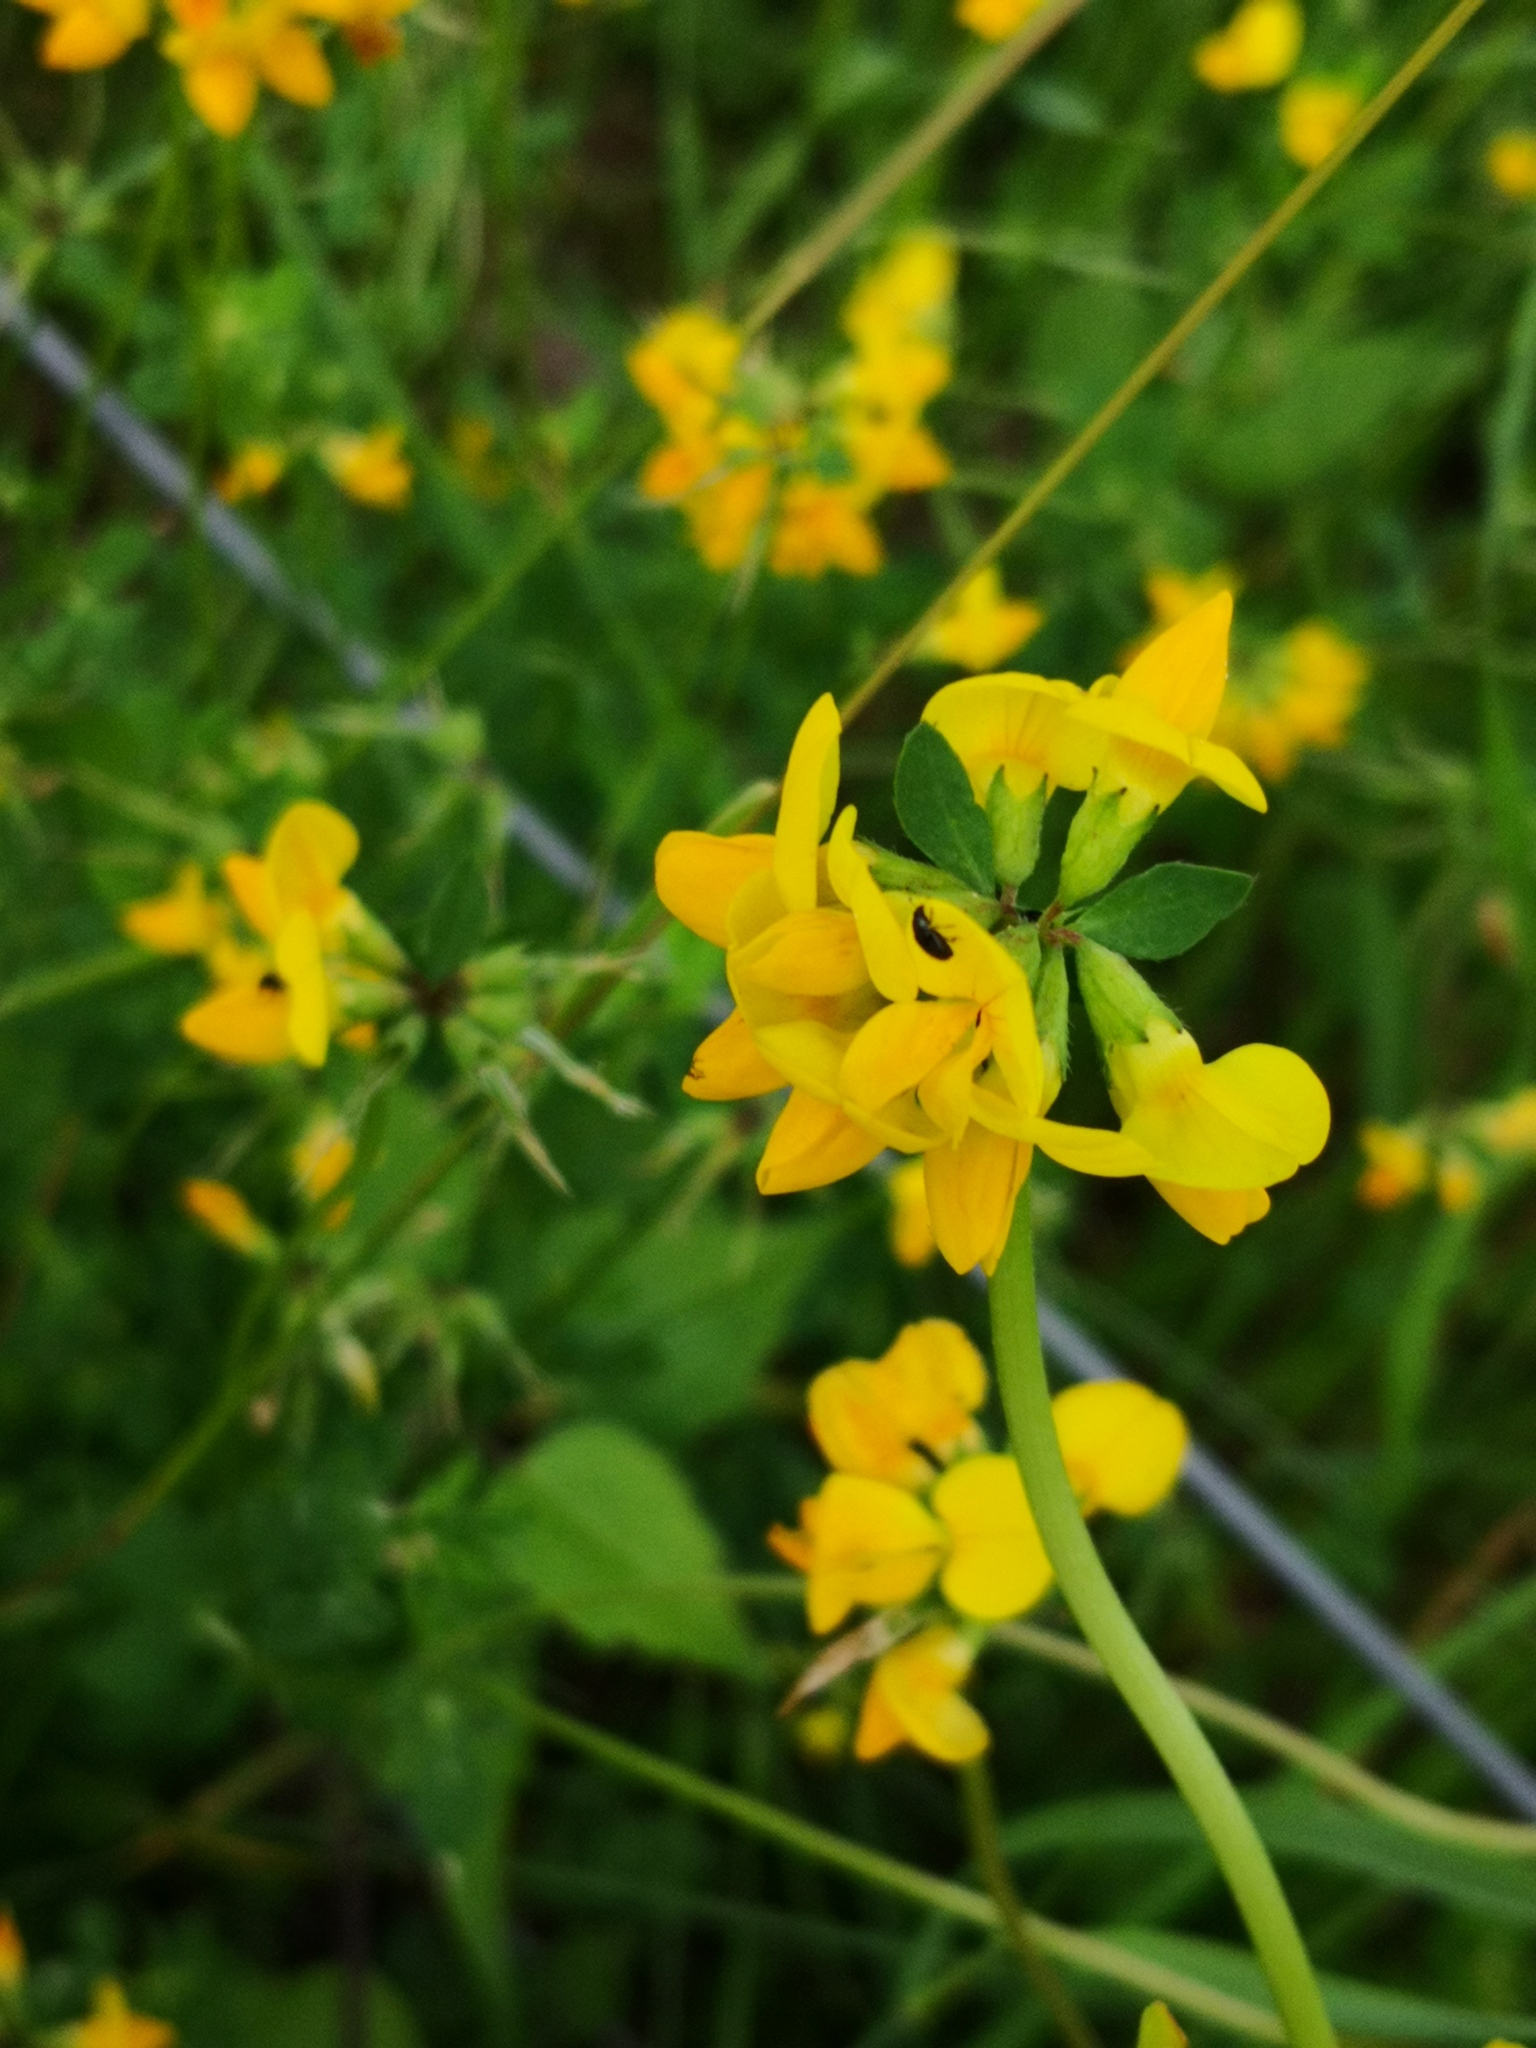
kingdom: Plantae
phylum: Tracheophyta
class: Magnoliopsida
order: Fabales
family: Fabaceae
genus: Lotus
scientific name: Lotus corniculatus
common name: Common bird's-foot-trefoil
